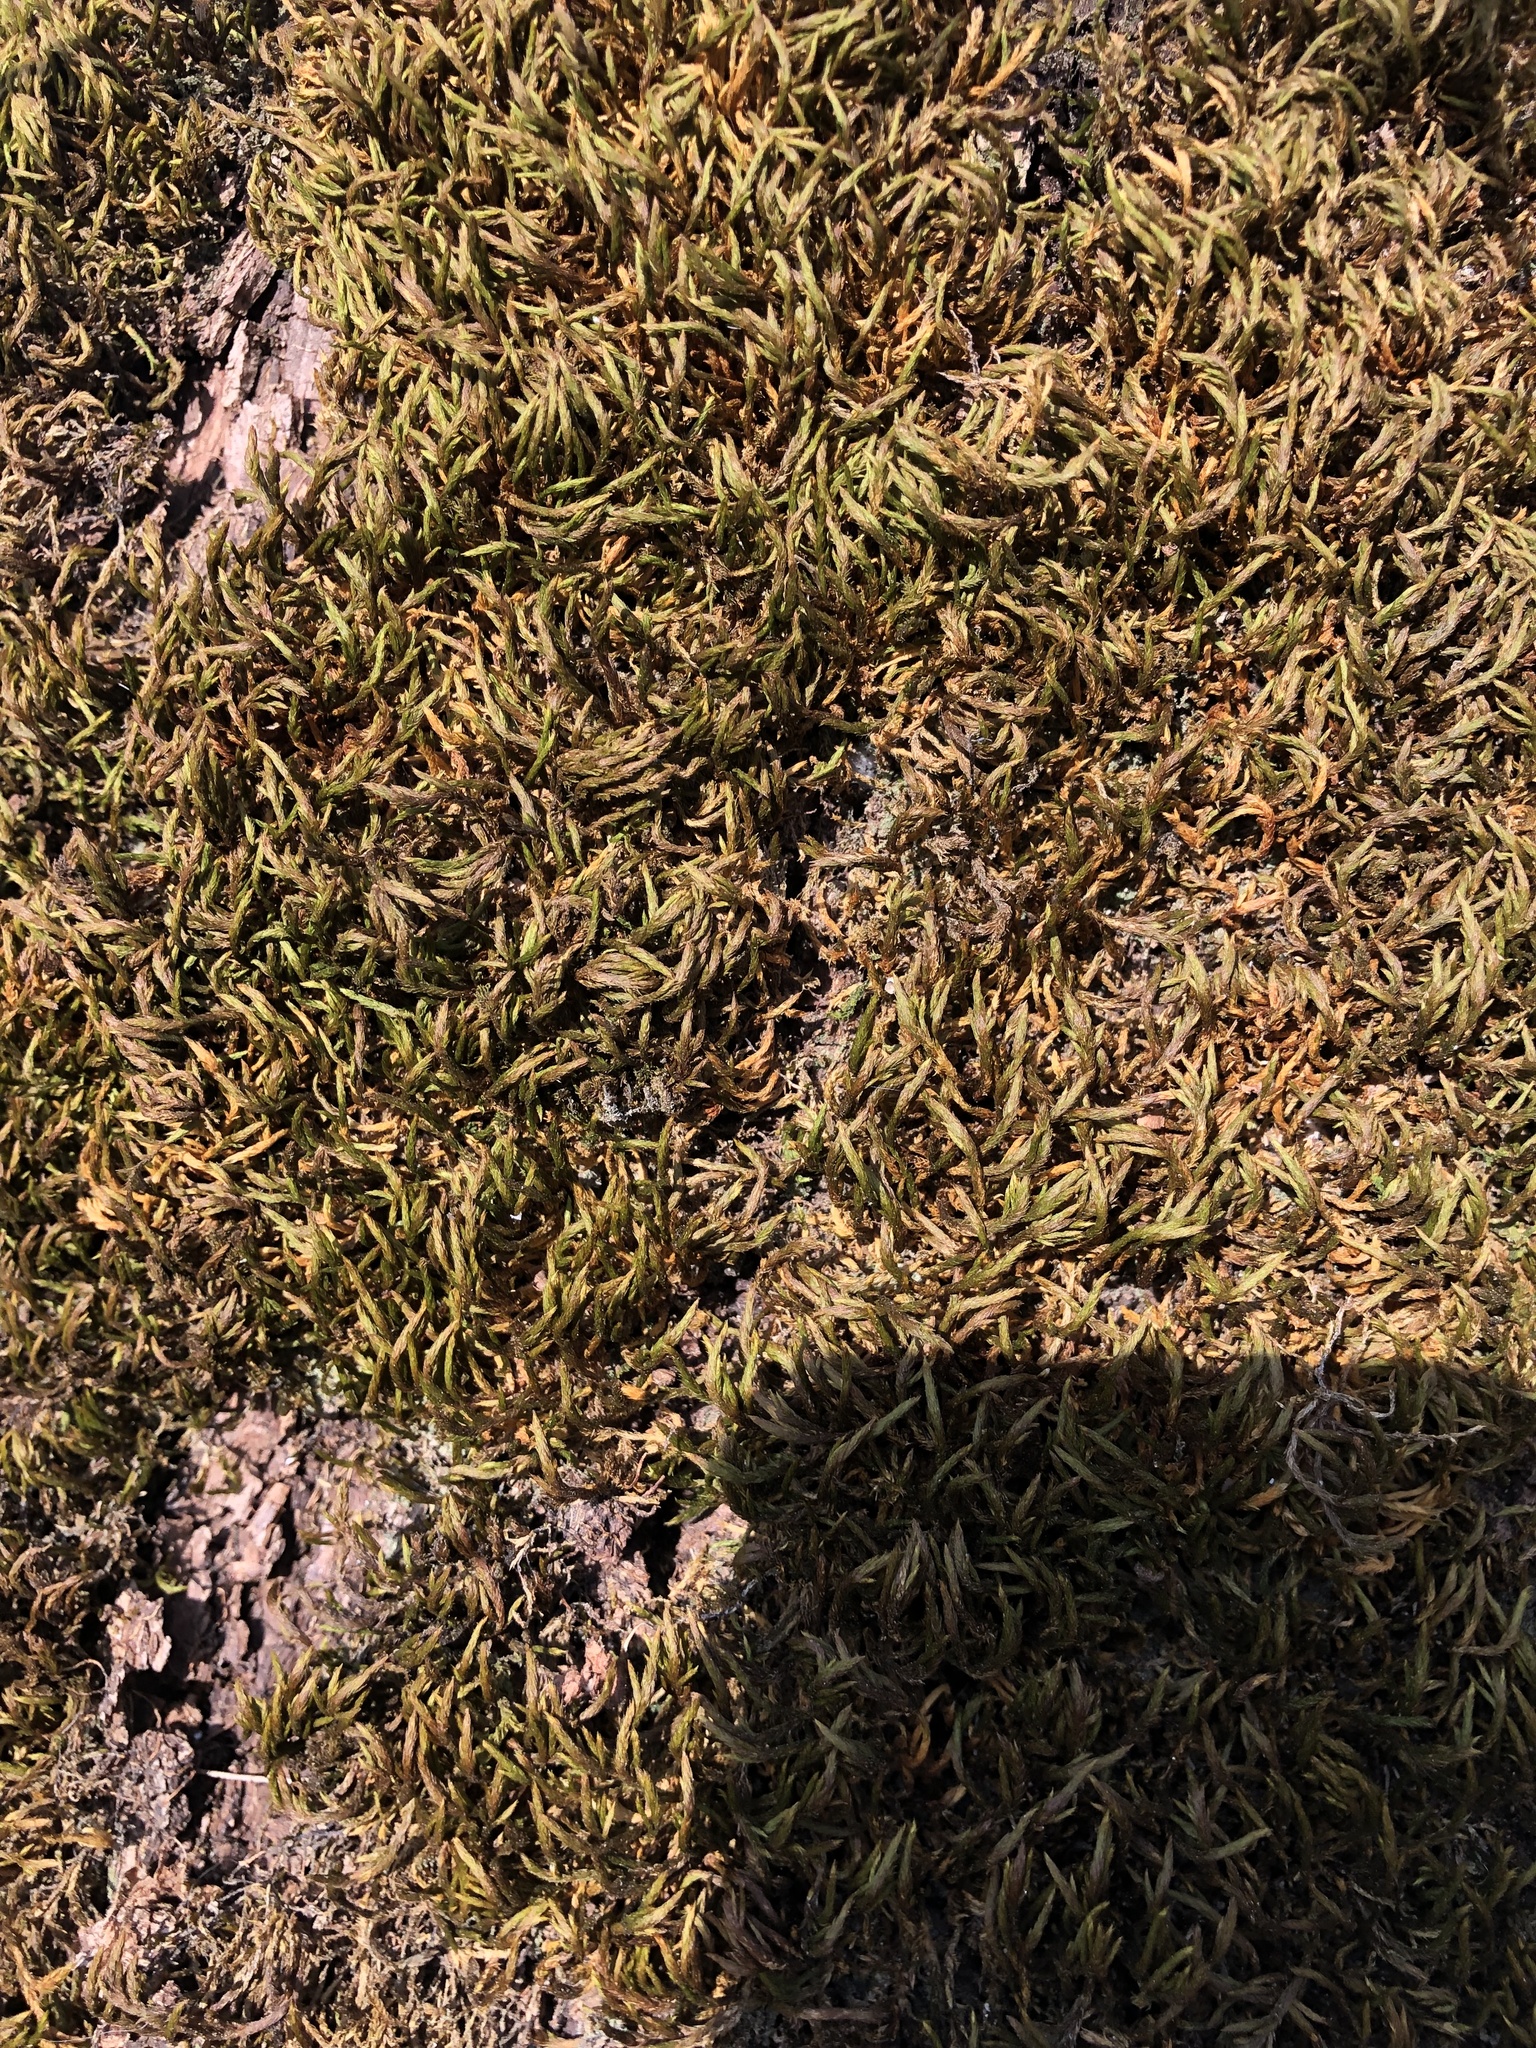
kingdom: Plantae
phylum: Bryophyta
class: Bryopsida
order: Hypnales
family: Leucodontaceae
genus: Leucodon
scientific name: Leucodon sciuroides
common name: Squirrel-tail moss
